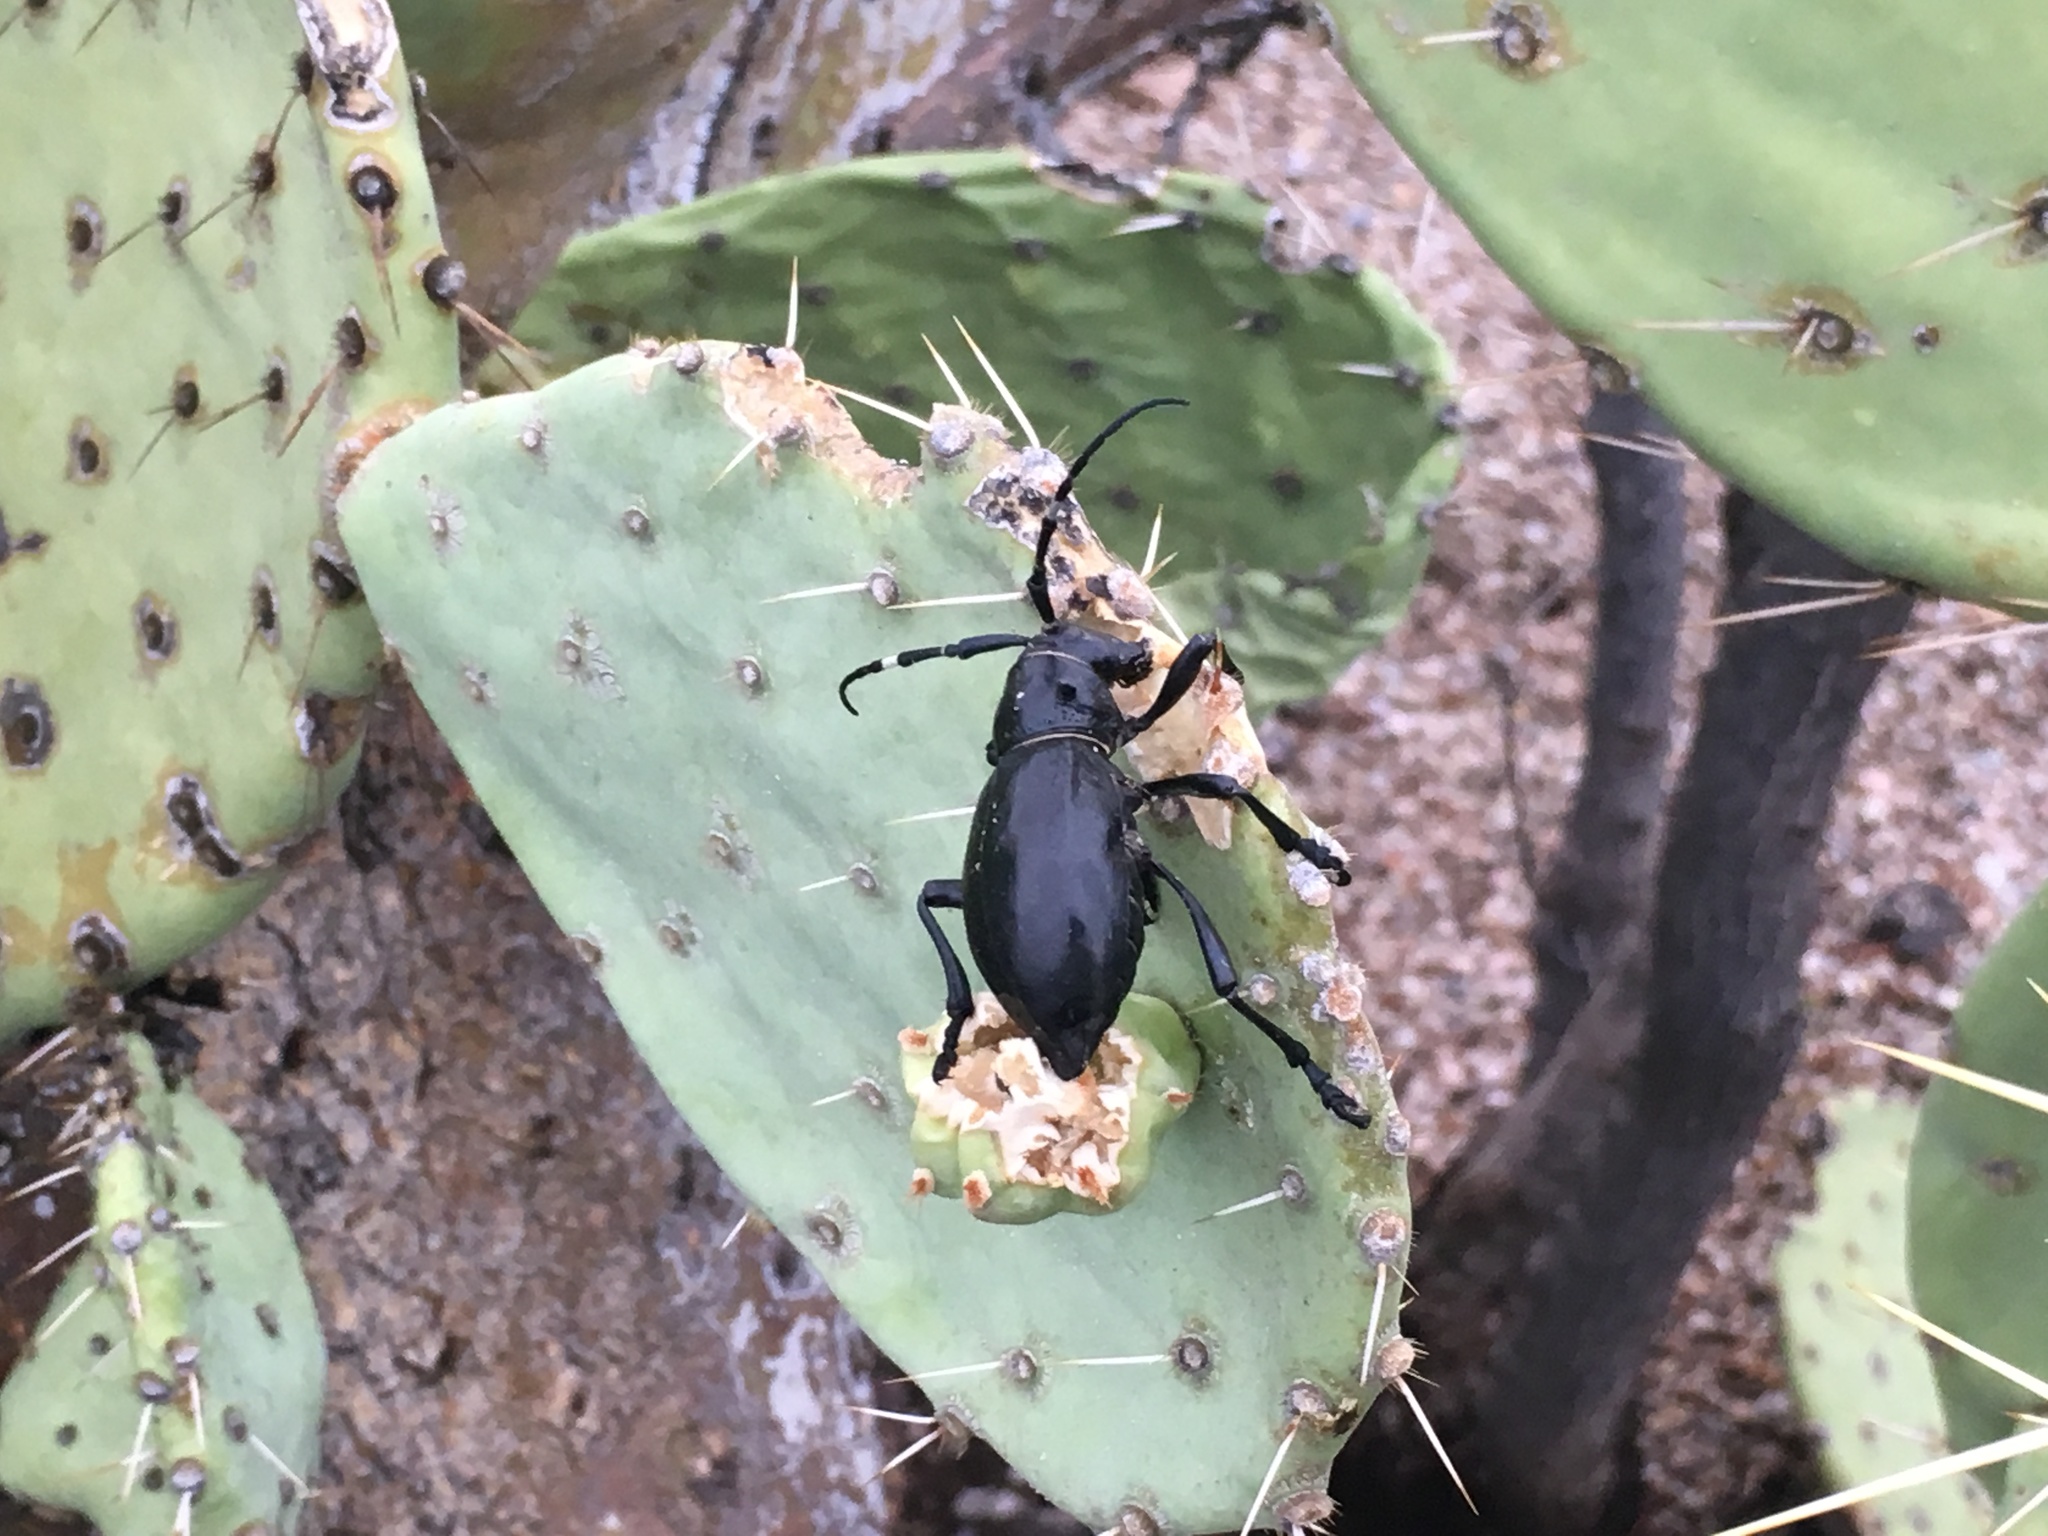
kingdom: Animalia
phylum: Arthropoda
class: Insecta
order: Coleoptera
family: Cerambycidae
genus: Moneilema
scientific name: Moneilema gigas
